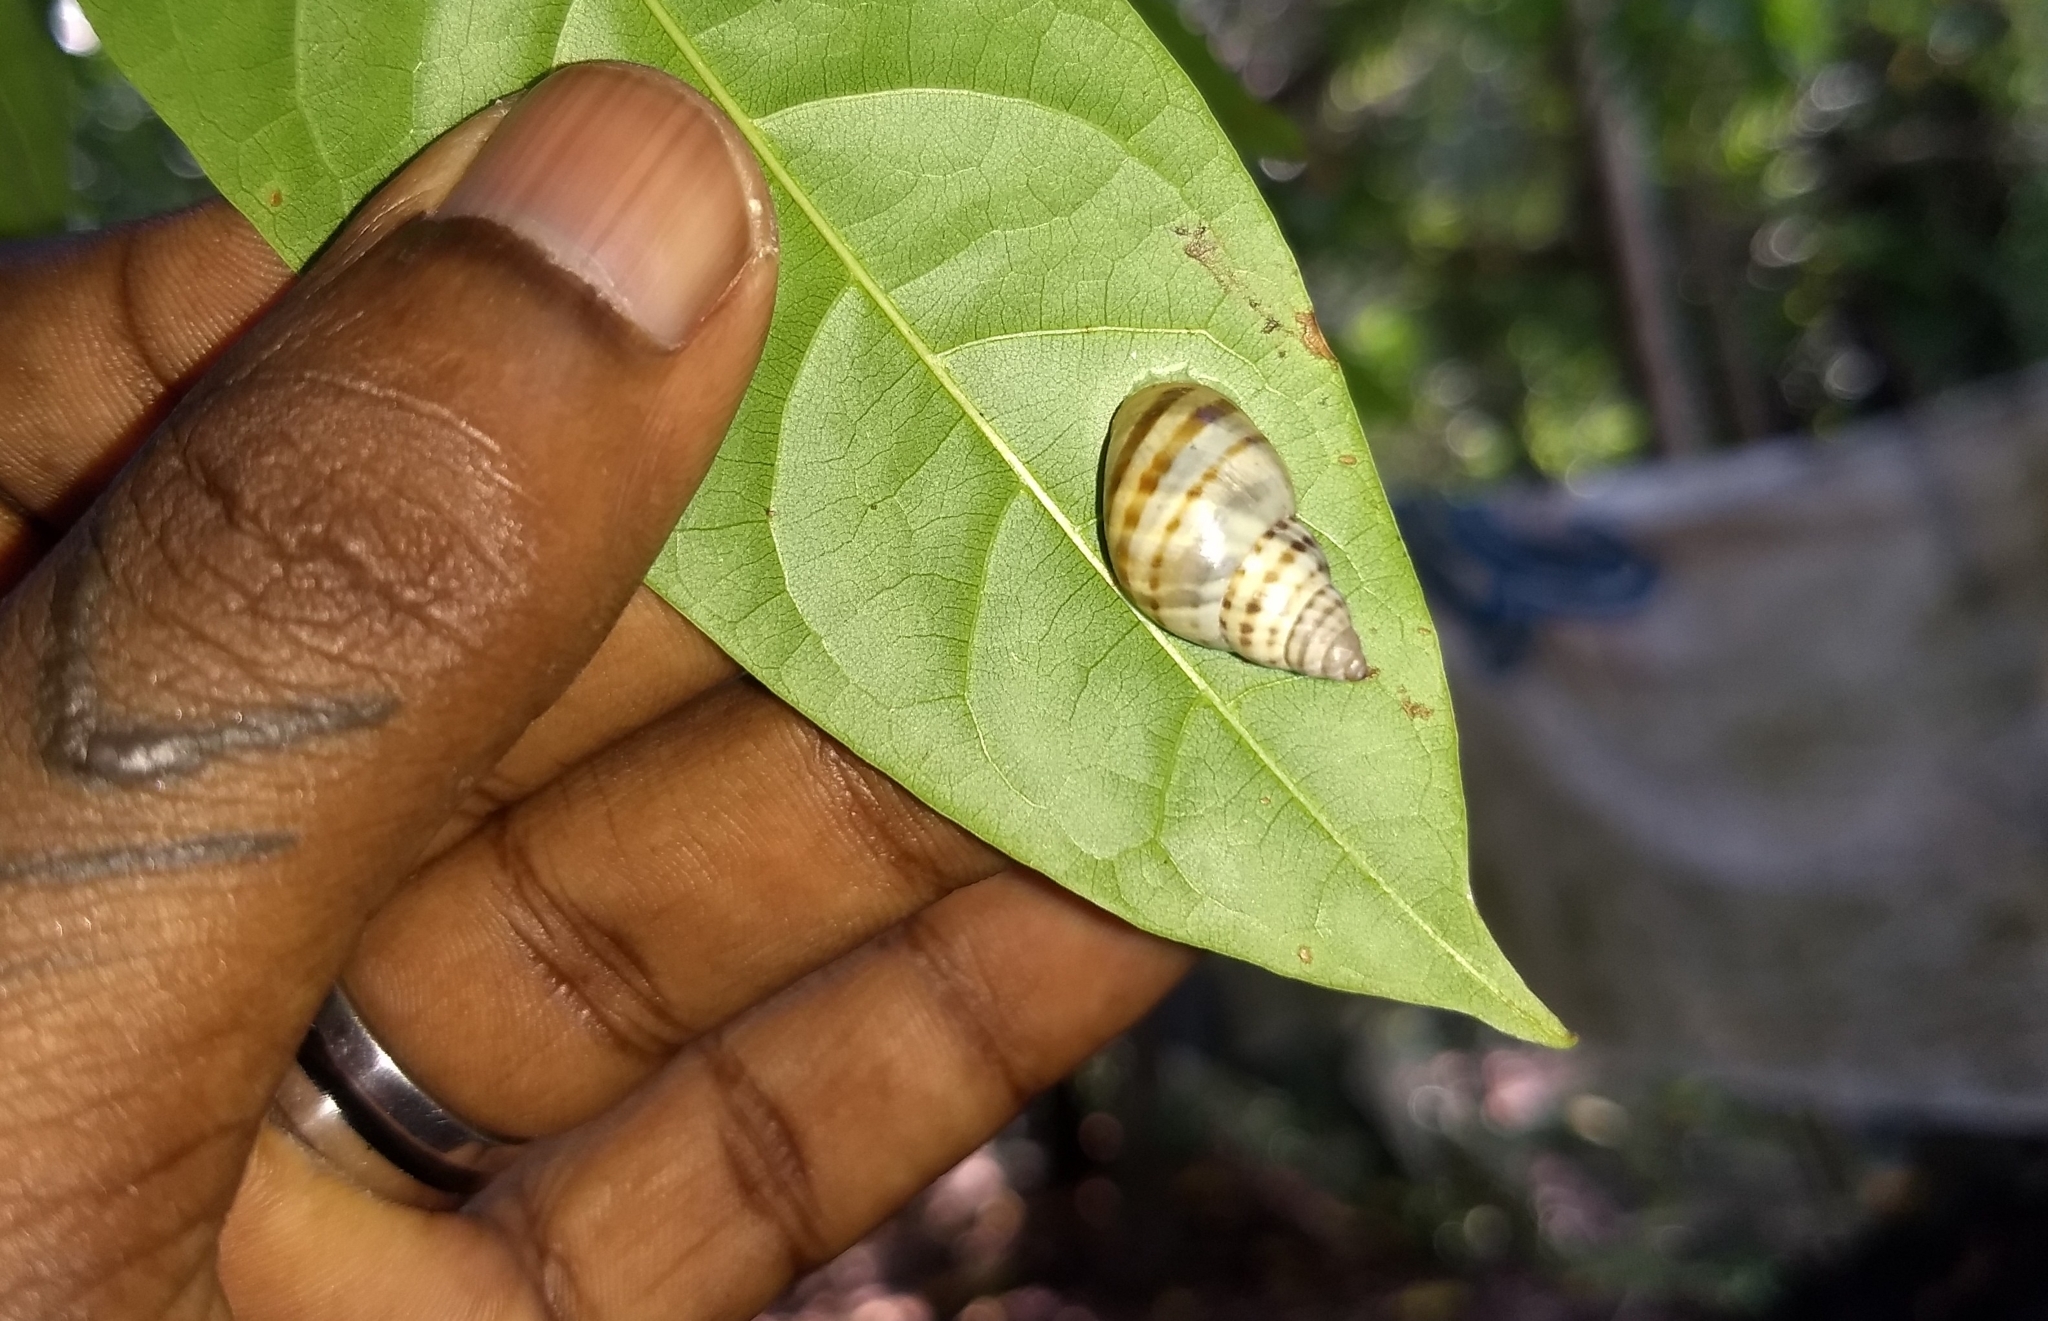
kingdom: Animalia
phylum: Mollusca
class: Gastropoda
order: Stylommatophora
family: Cerastidae
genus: Rhachistia
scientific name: Rhachistia trutta
